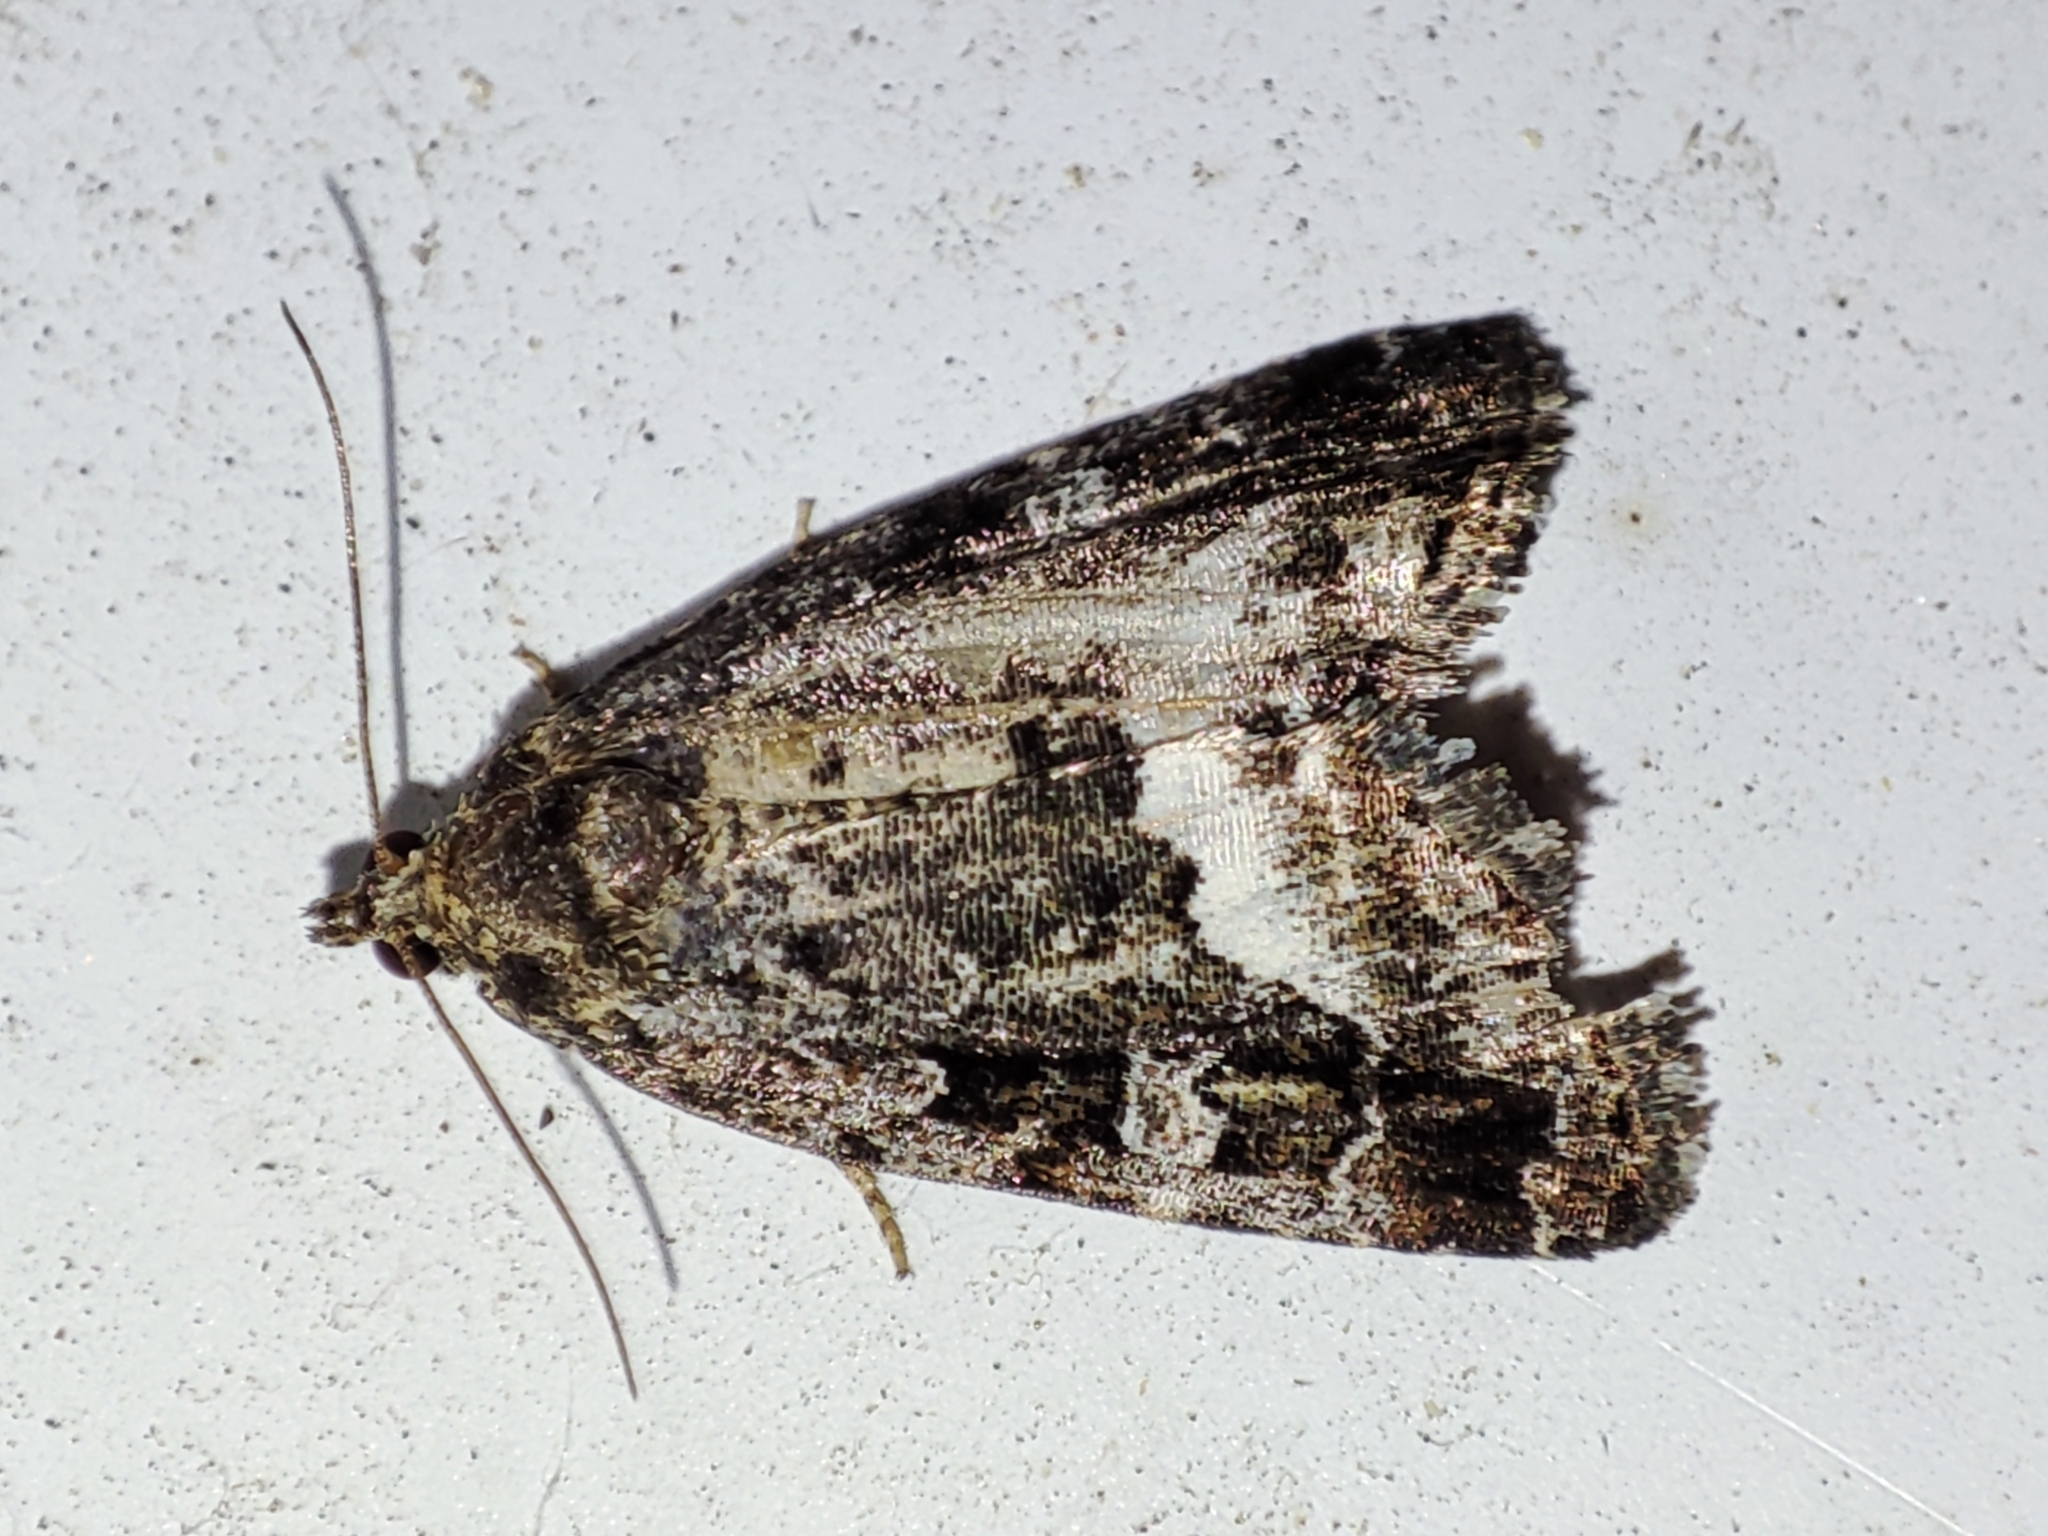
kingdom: Animalia
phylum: Arthropoda
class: Insecta
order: Lepidoptera
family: Noctuidae
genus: Deltote
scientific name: Deltote pygarga
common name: Marbled white spot
